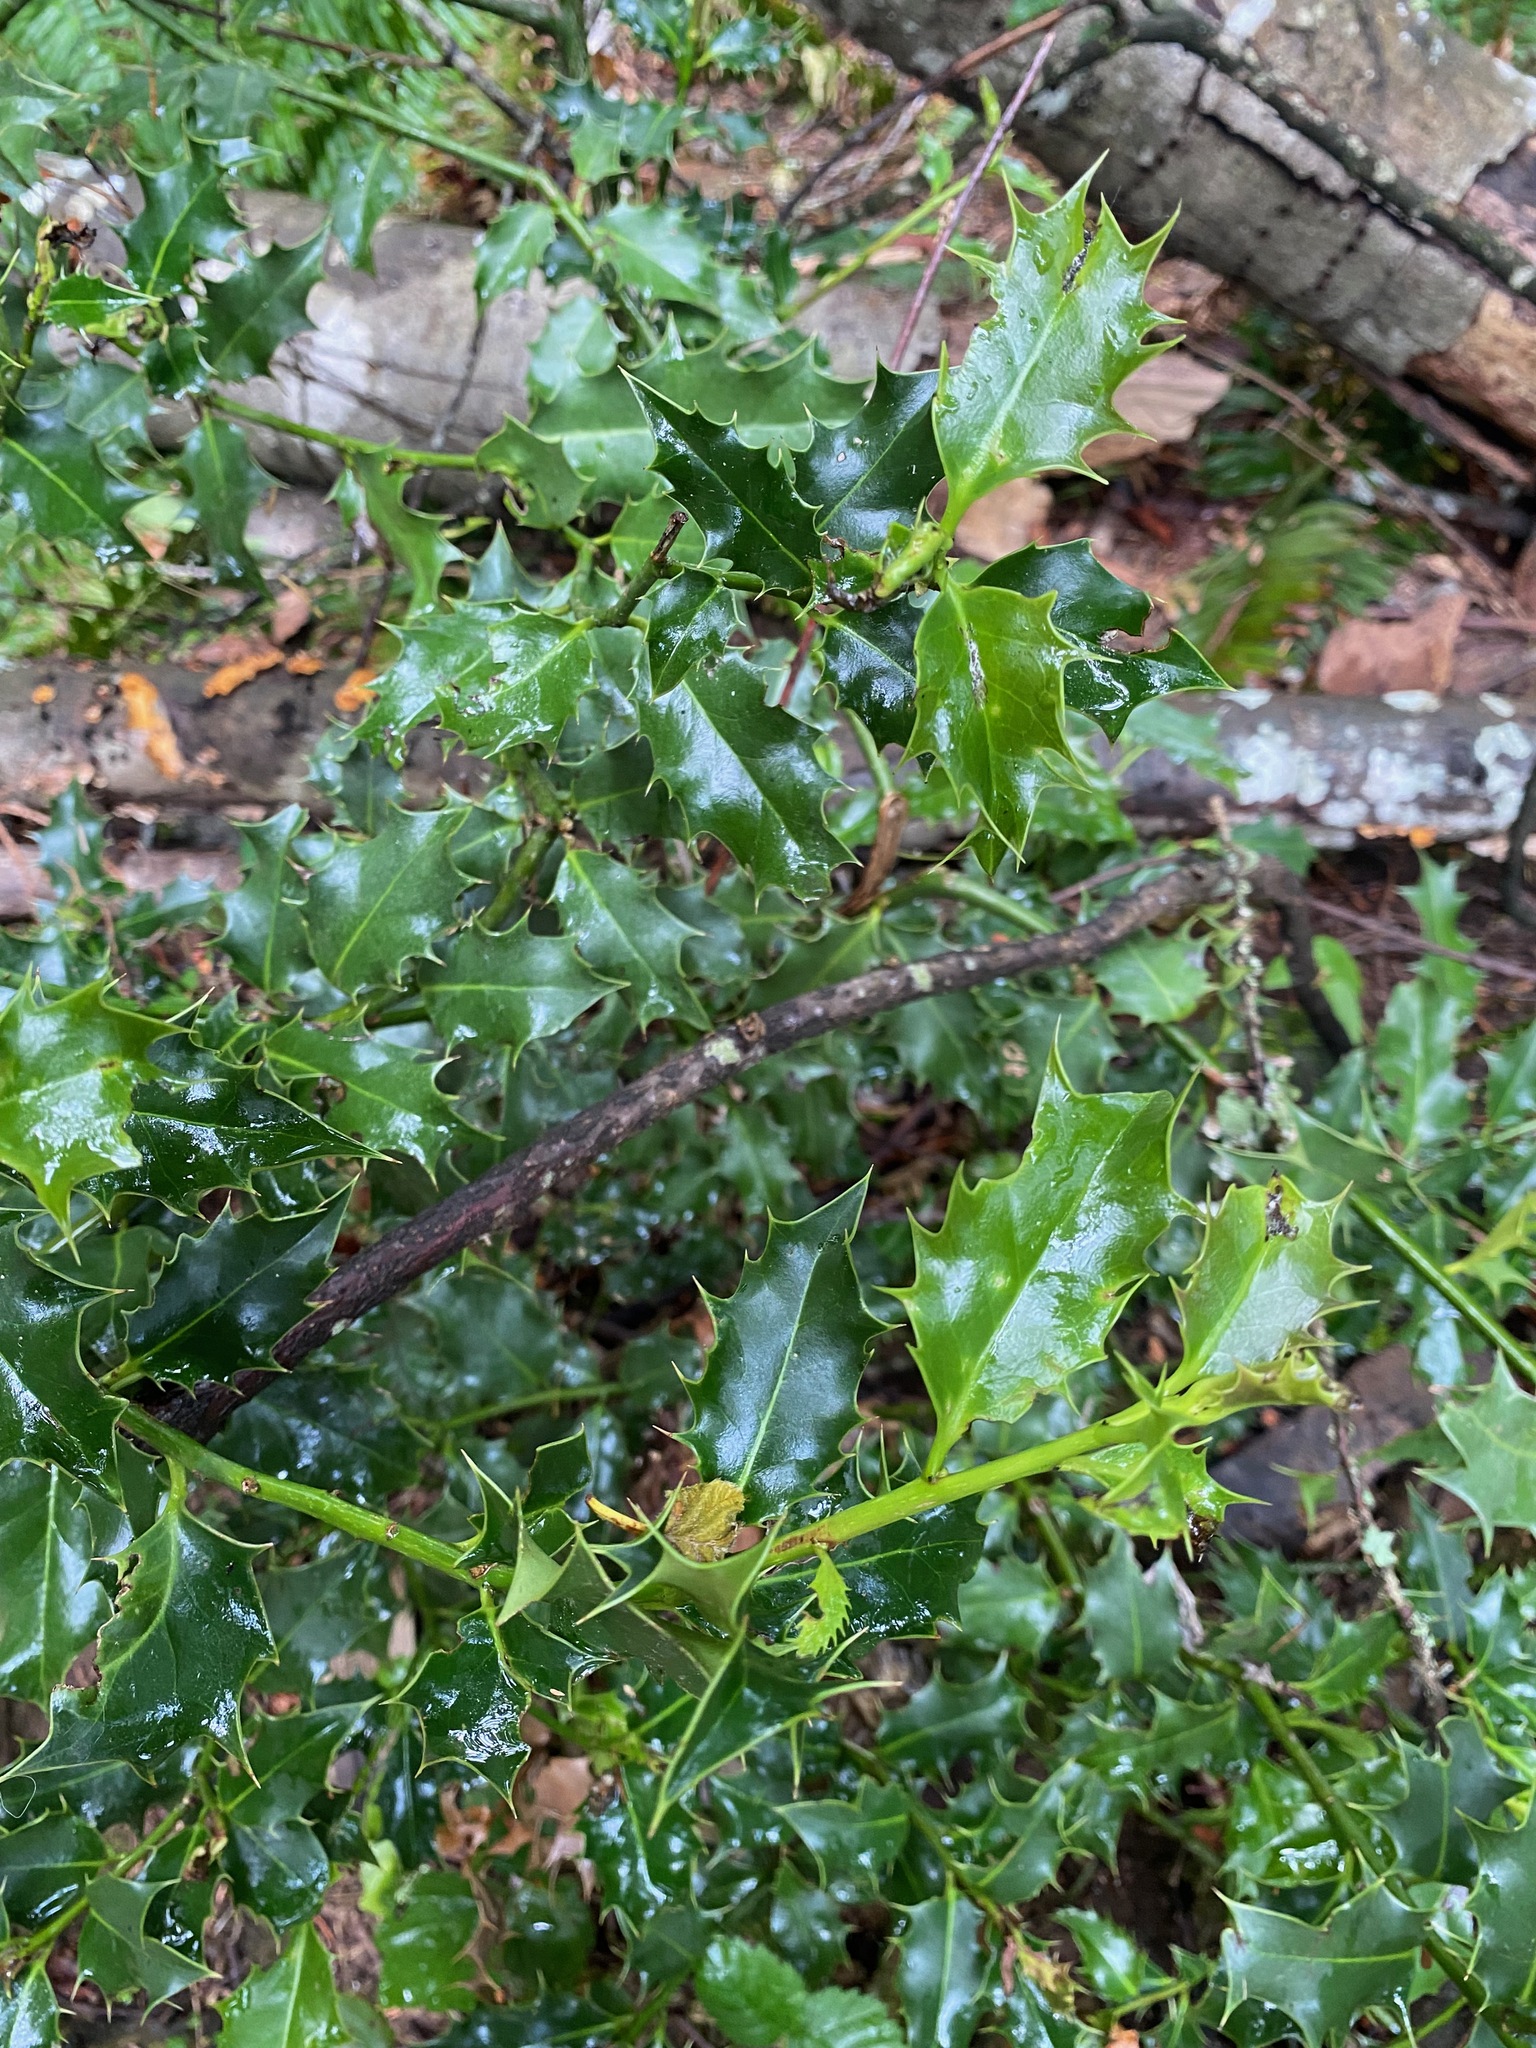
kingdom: Plantae
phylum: Tracheophyta
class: Magnoliopsida
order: Aquifoliales
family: Aquifoliaceae
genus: Ilex
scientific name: Ilex aquifolium
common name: English holly
